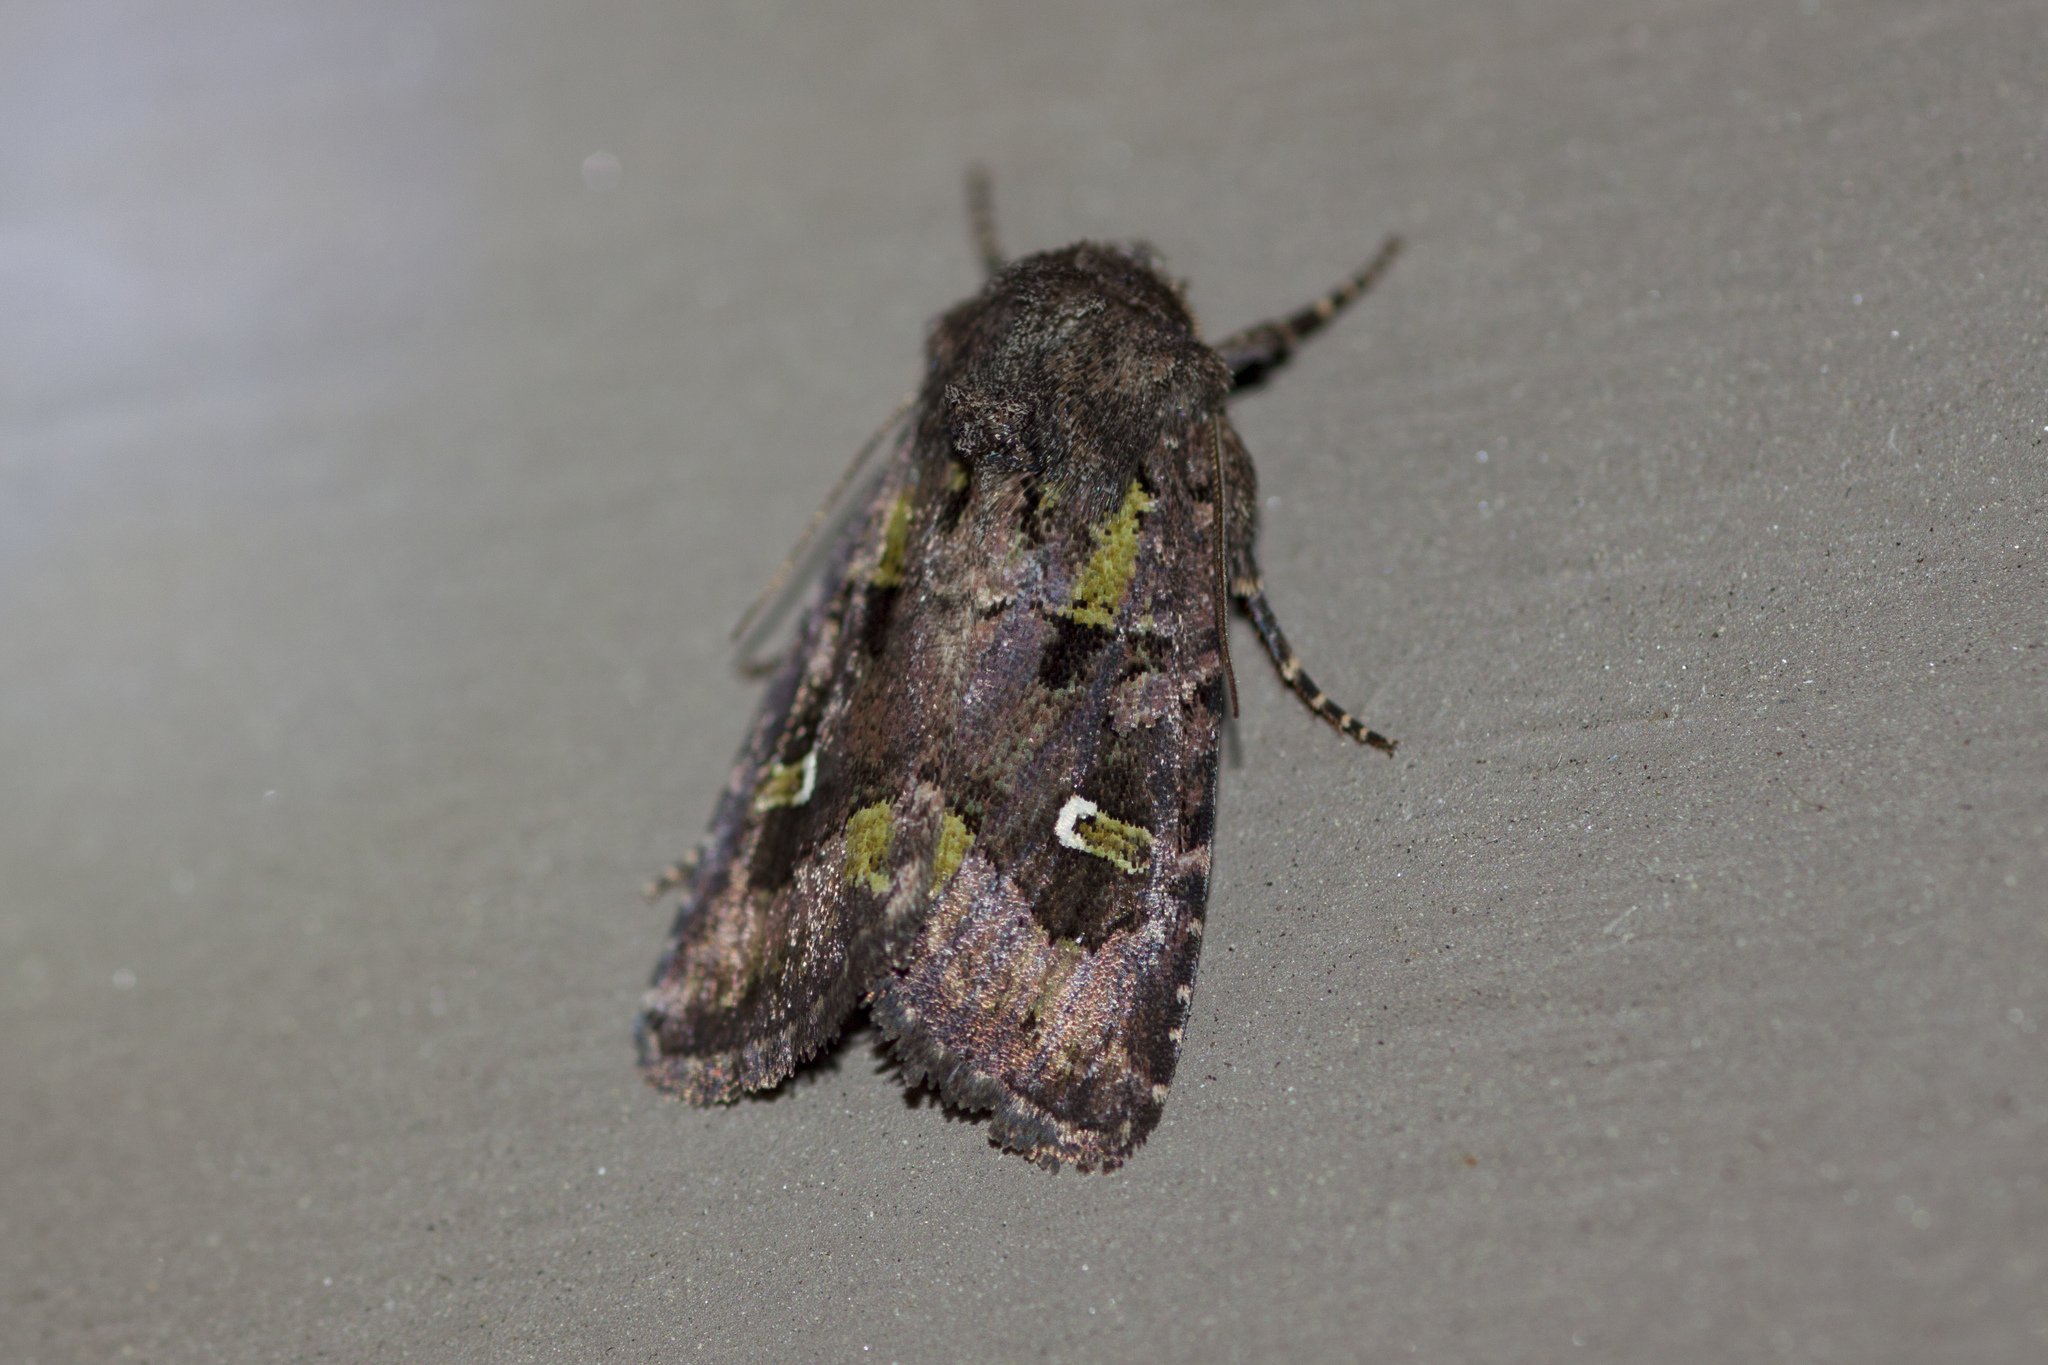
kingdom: Animalia
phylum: Arthropoda
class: Insecta
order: Lepidoptera
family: Noctuidae
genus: Lacinipolia
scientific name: Lacinipolia renigera
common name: Kidney-spotted minor
